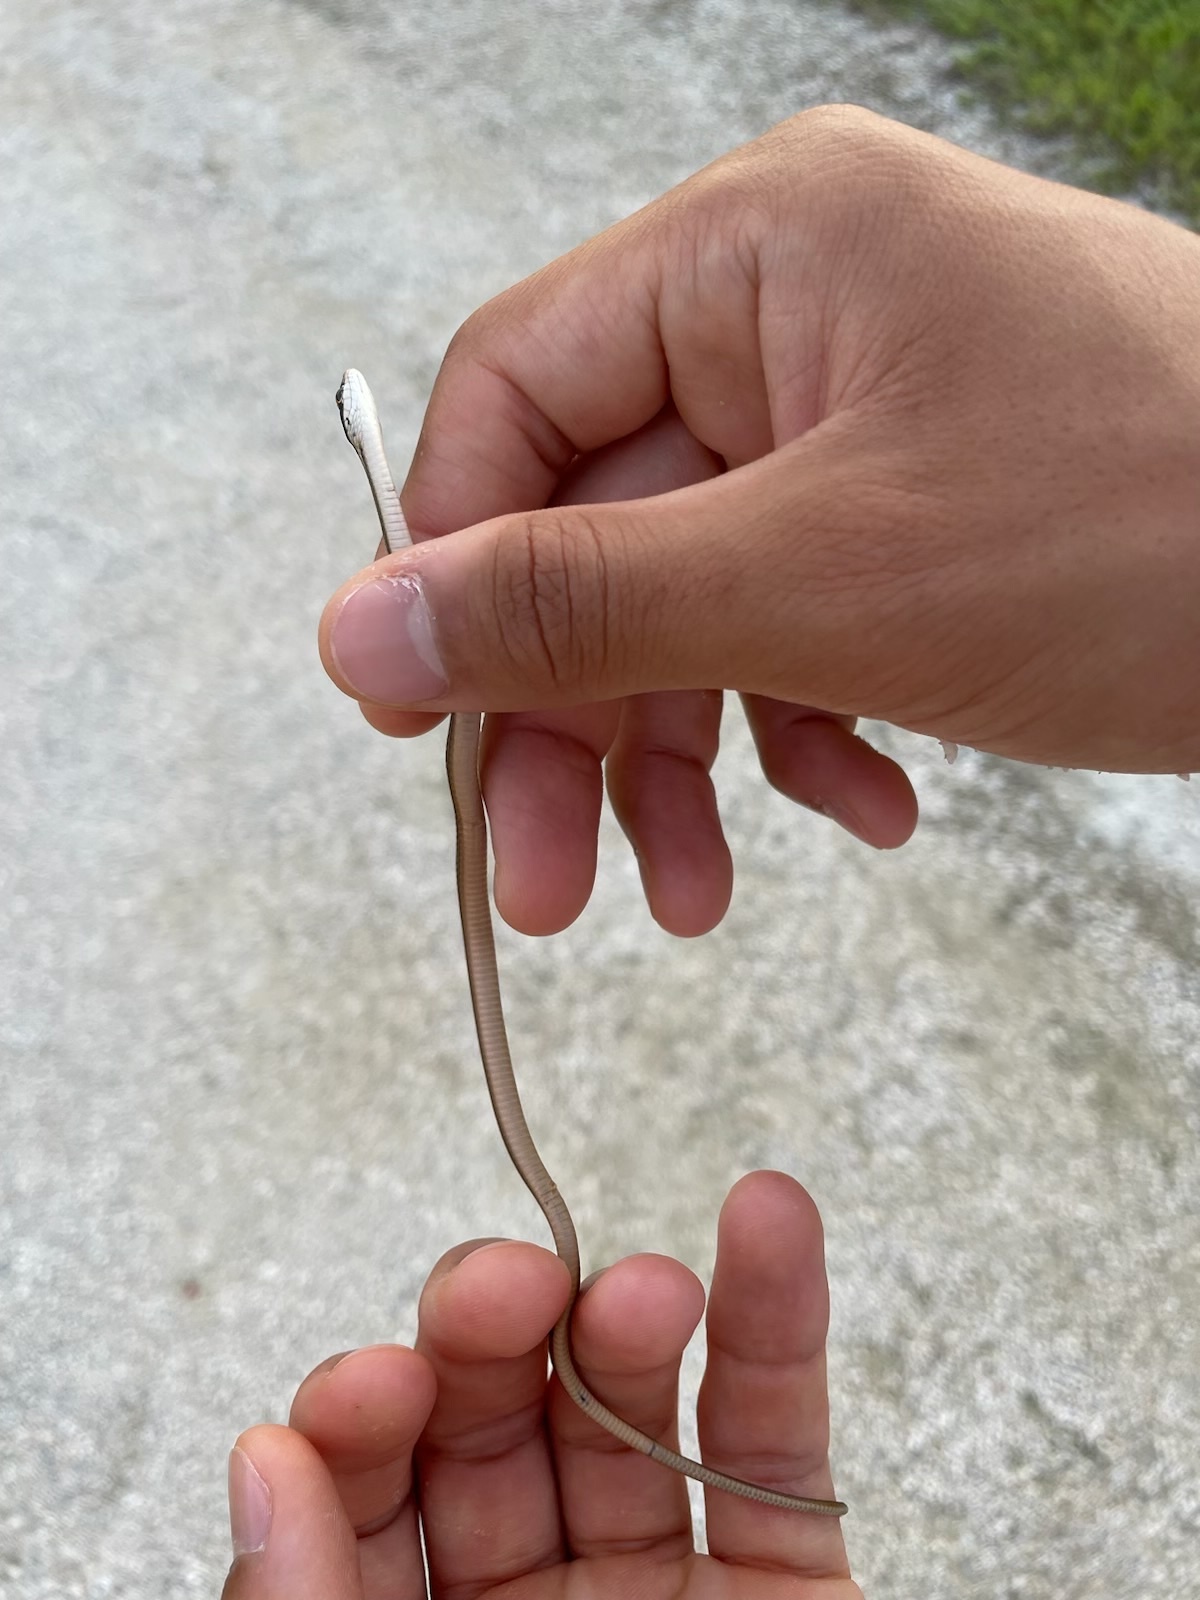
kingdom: Animalia
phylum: Chordata
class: Squamata
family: Colubridae
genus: Thamnophis
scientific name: Thamnophis saurita
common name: Eastern ribbonsnake
